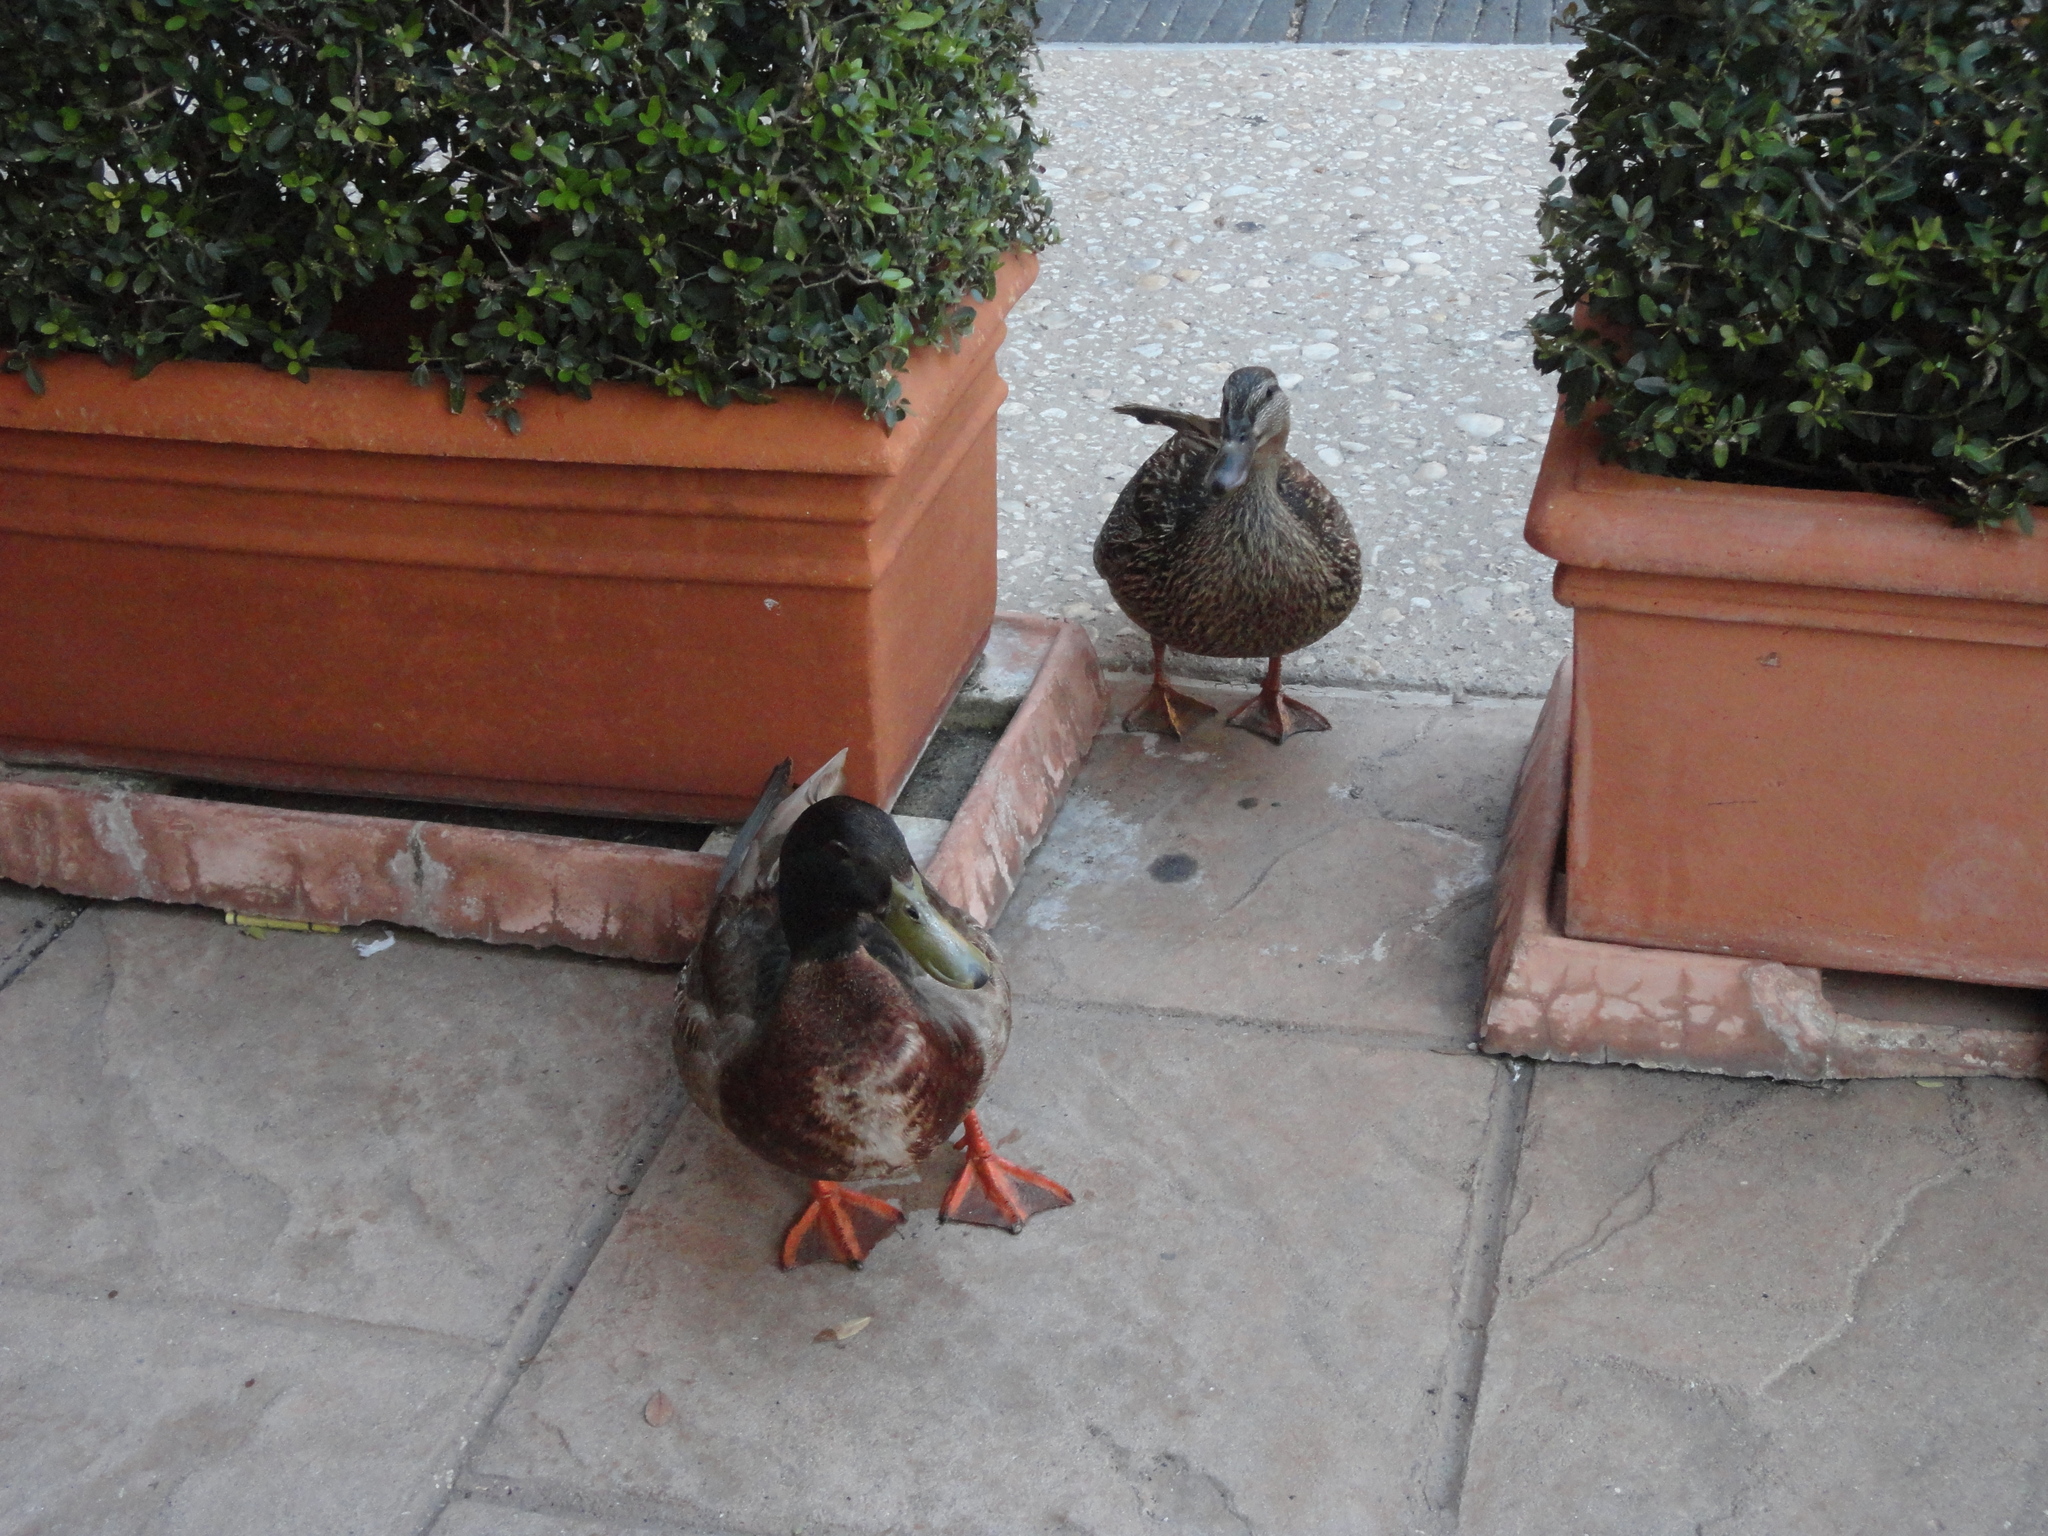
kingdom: Animalia
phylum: Chordata
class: Aves
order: Anseriformes
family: Anatidae
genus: Anas
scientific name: Anas platyrhynchos
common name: Mallard
